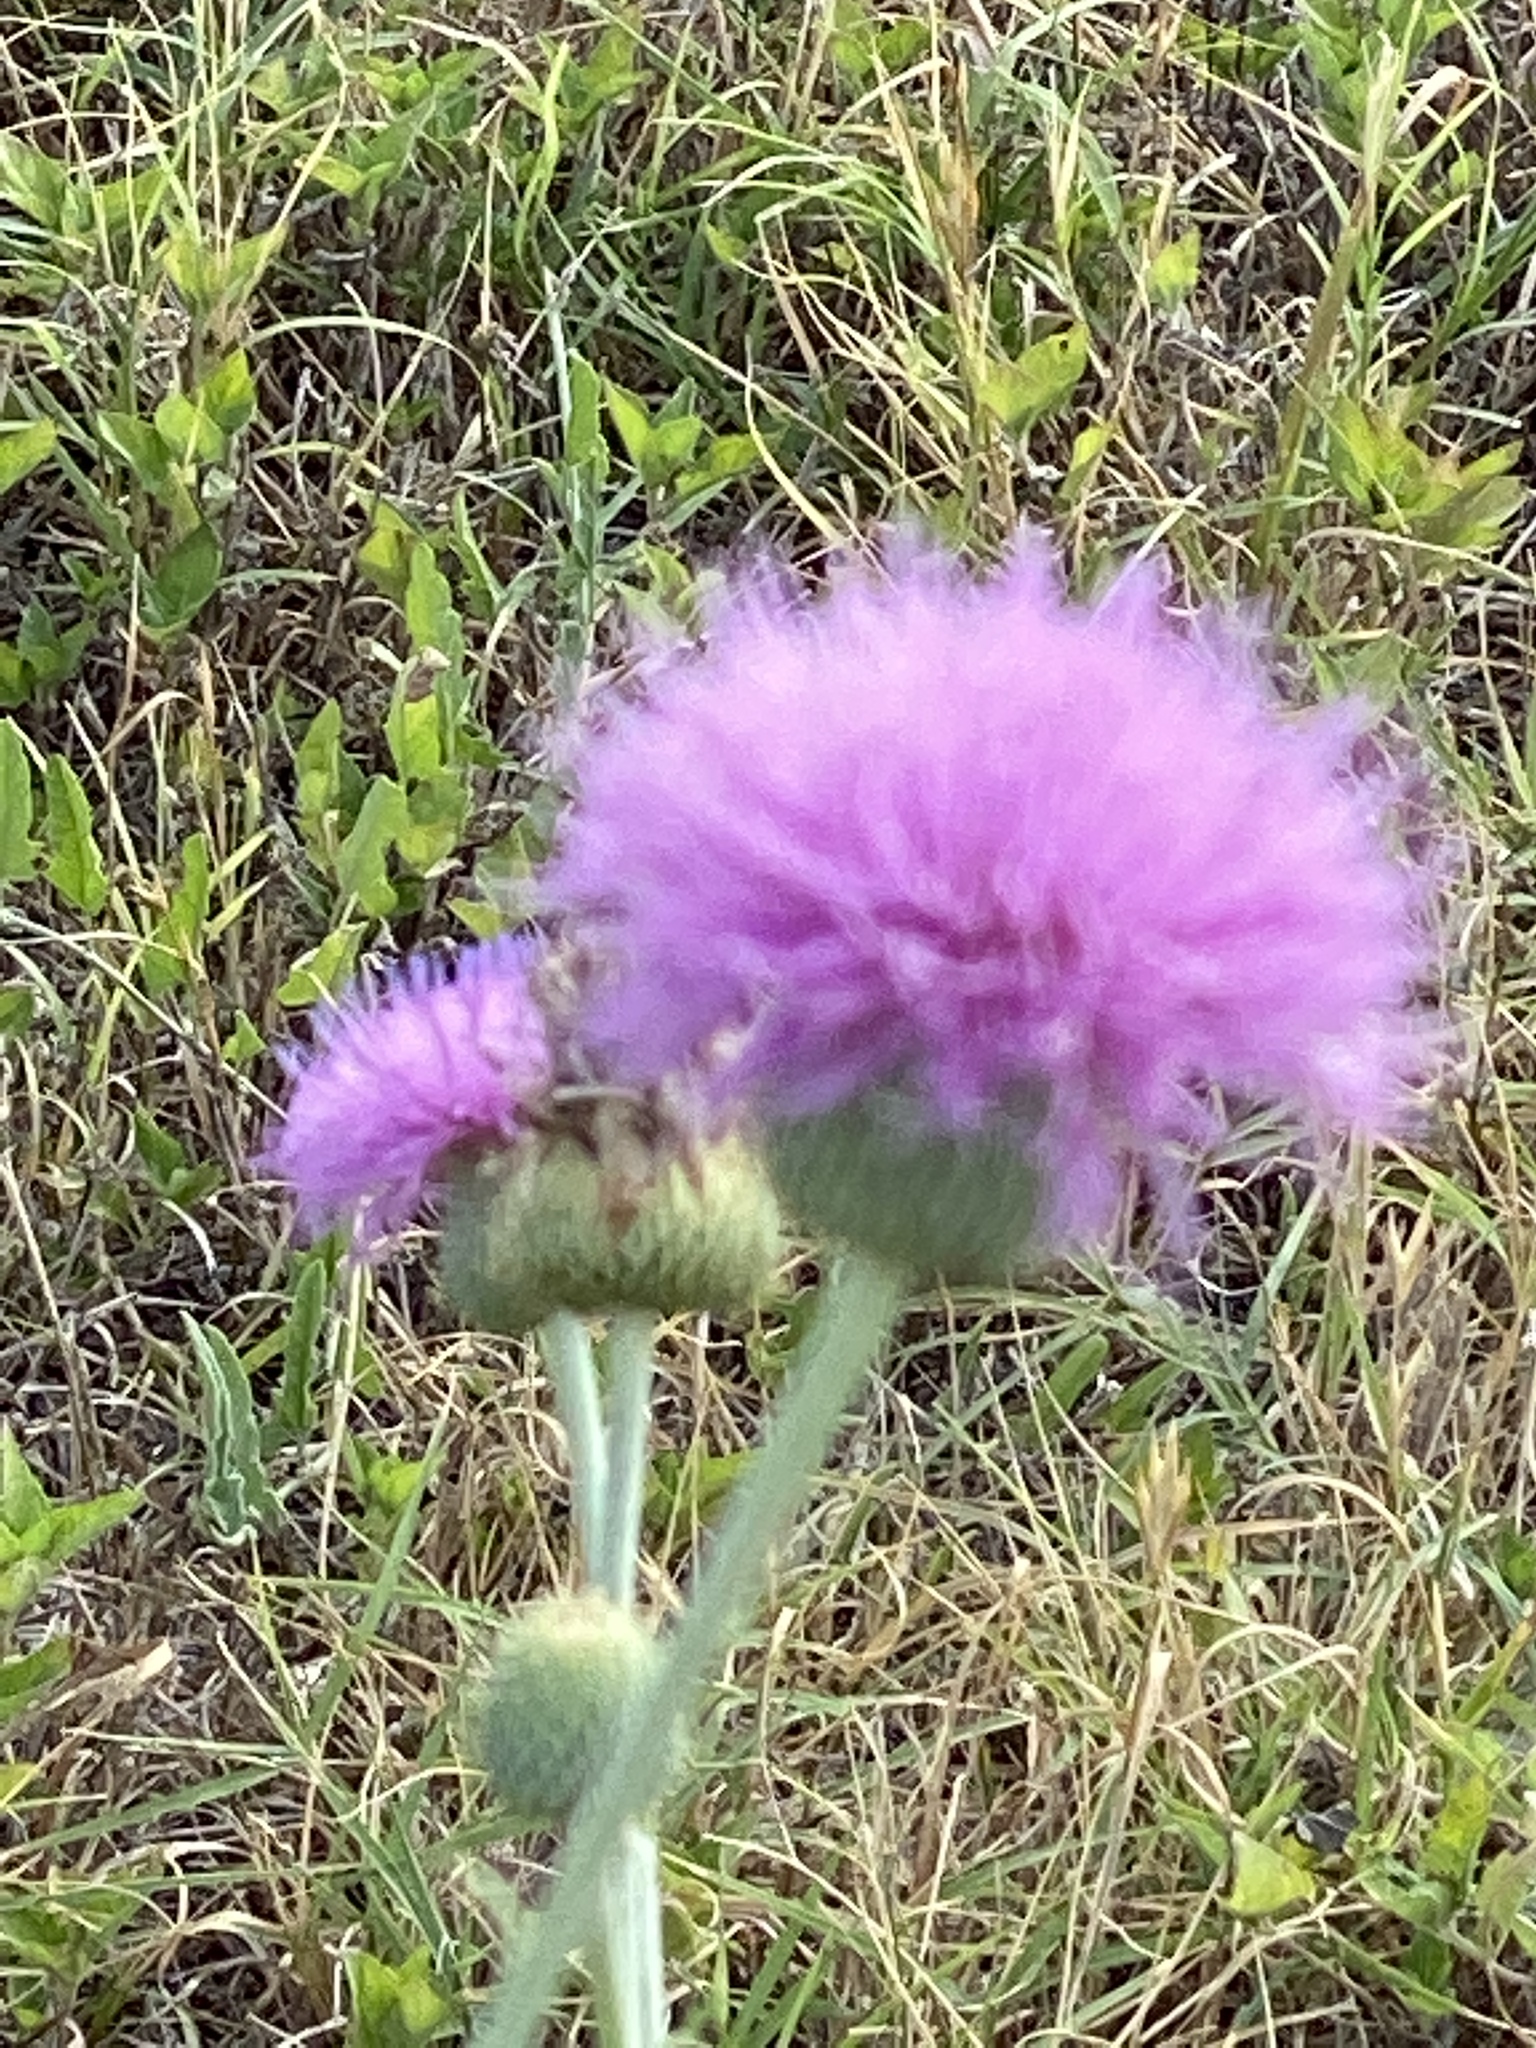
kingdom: Plantae
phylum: Tracheophyta
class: Magnoliopsida
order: Asterales
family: Asteraceae
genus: Cirsium
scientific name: Cirsium texanum
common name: Texas purple thistle
